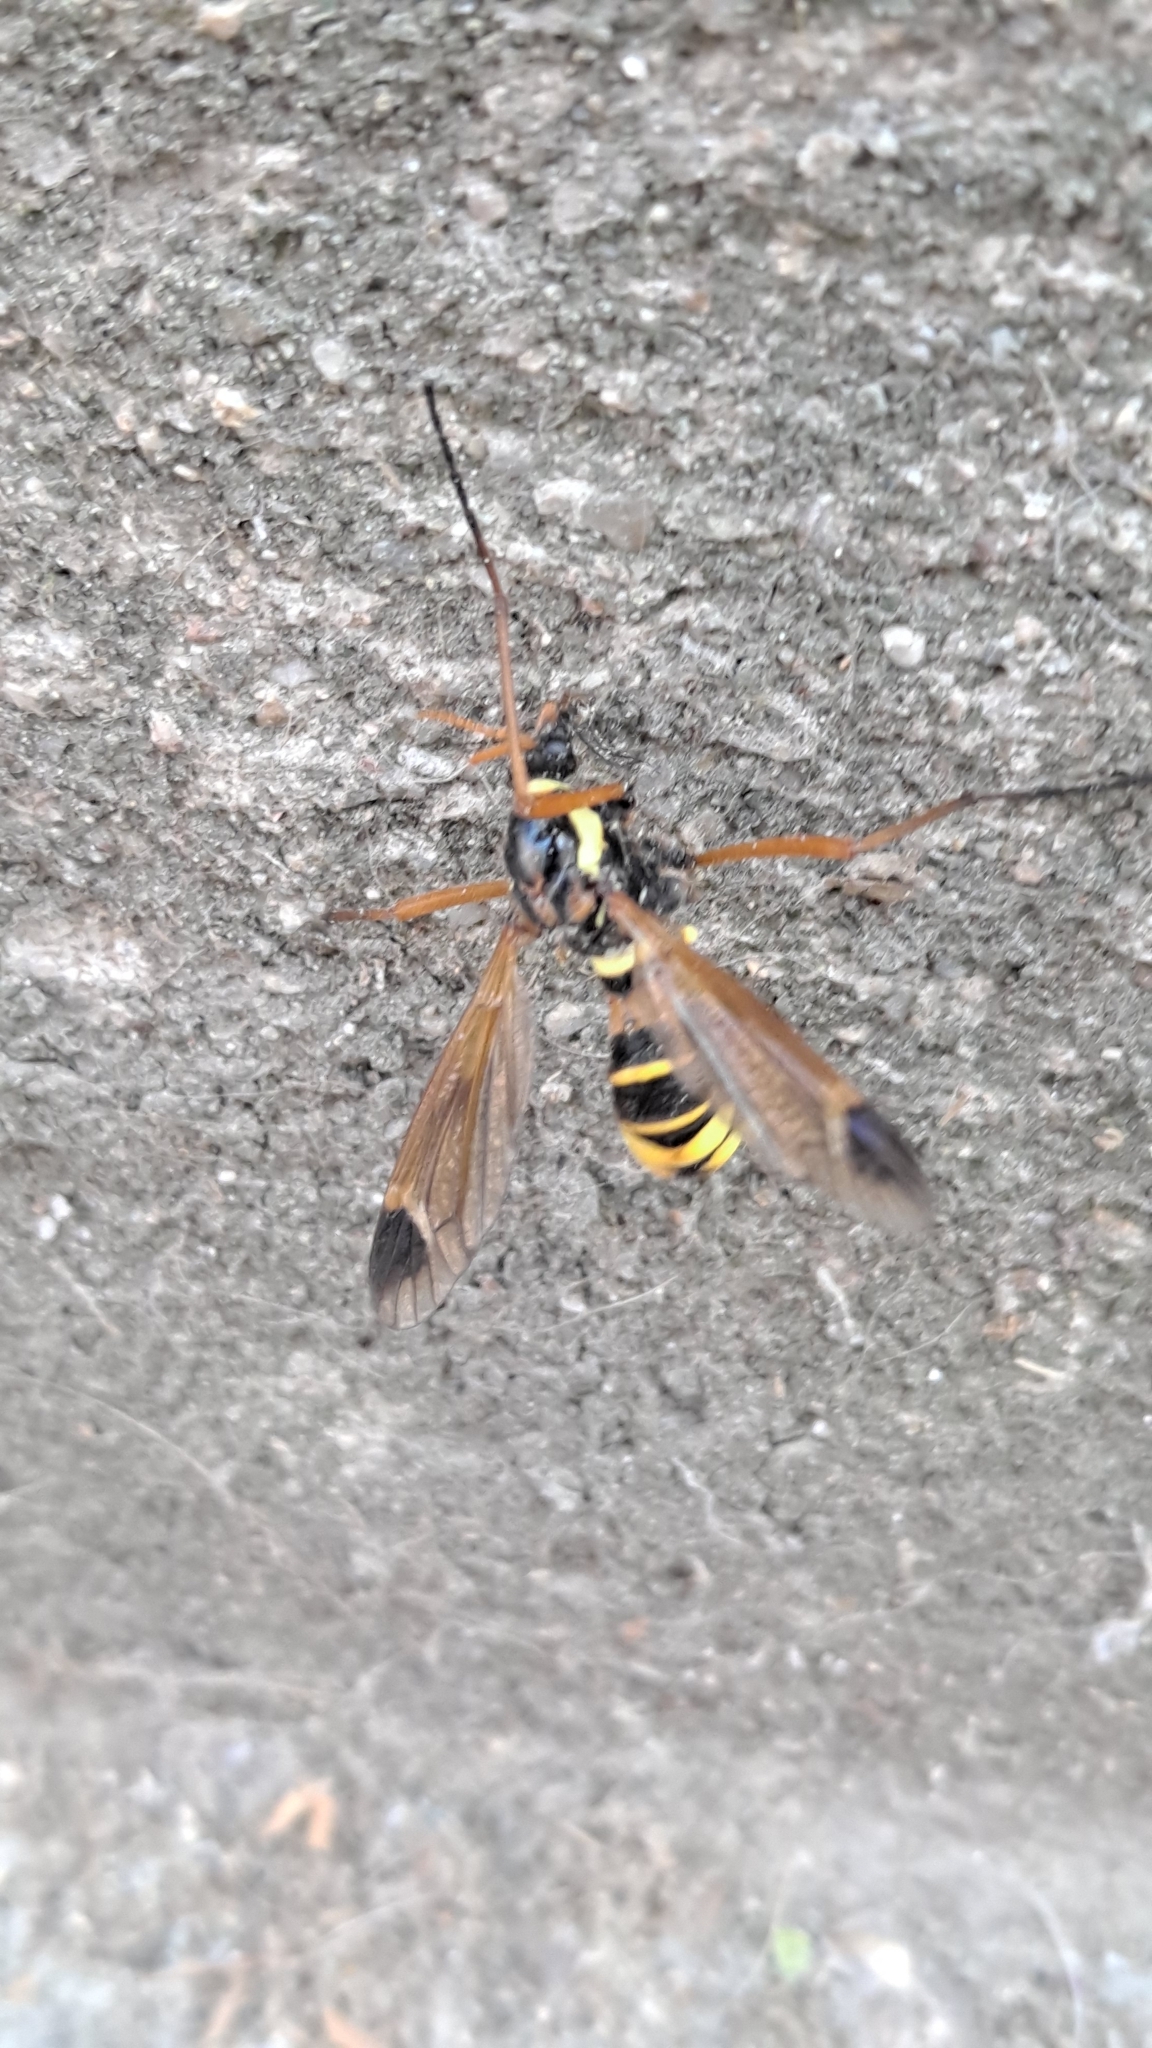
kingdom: Animalia
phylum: Arthropoda
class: Insecta
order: Diptera
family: Tipulidae
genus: Ctenophora
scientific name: Ctenophora ornata
